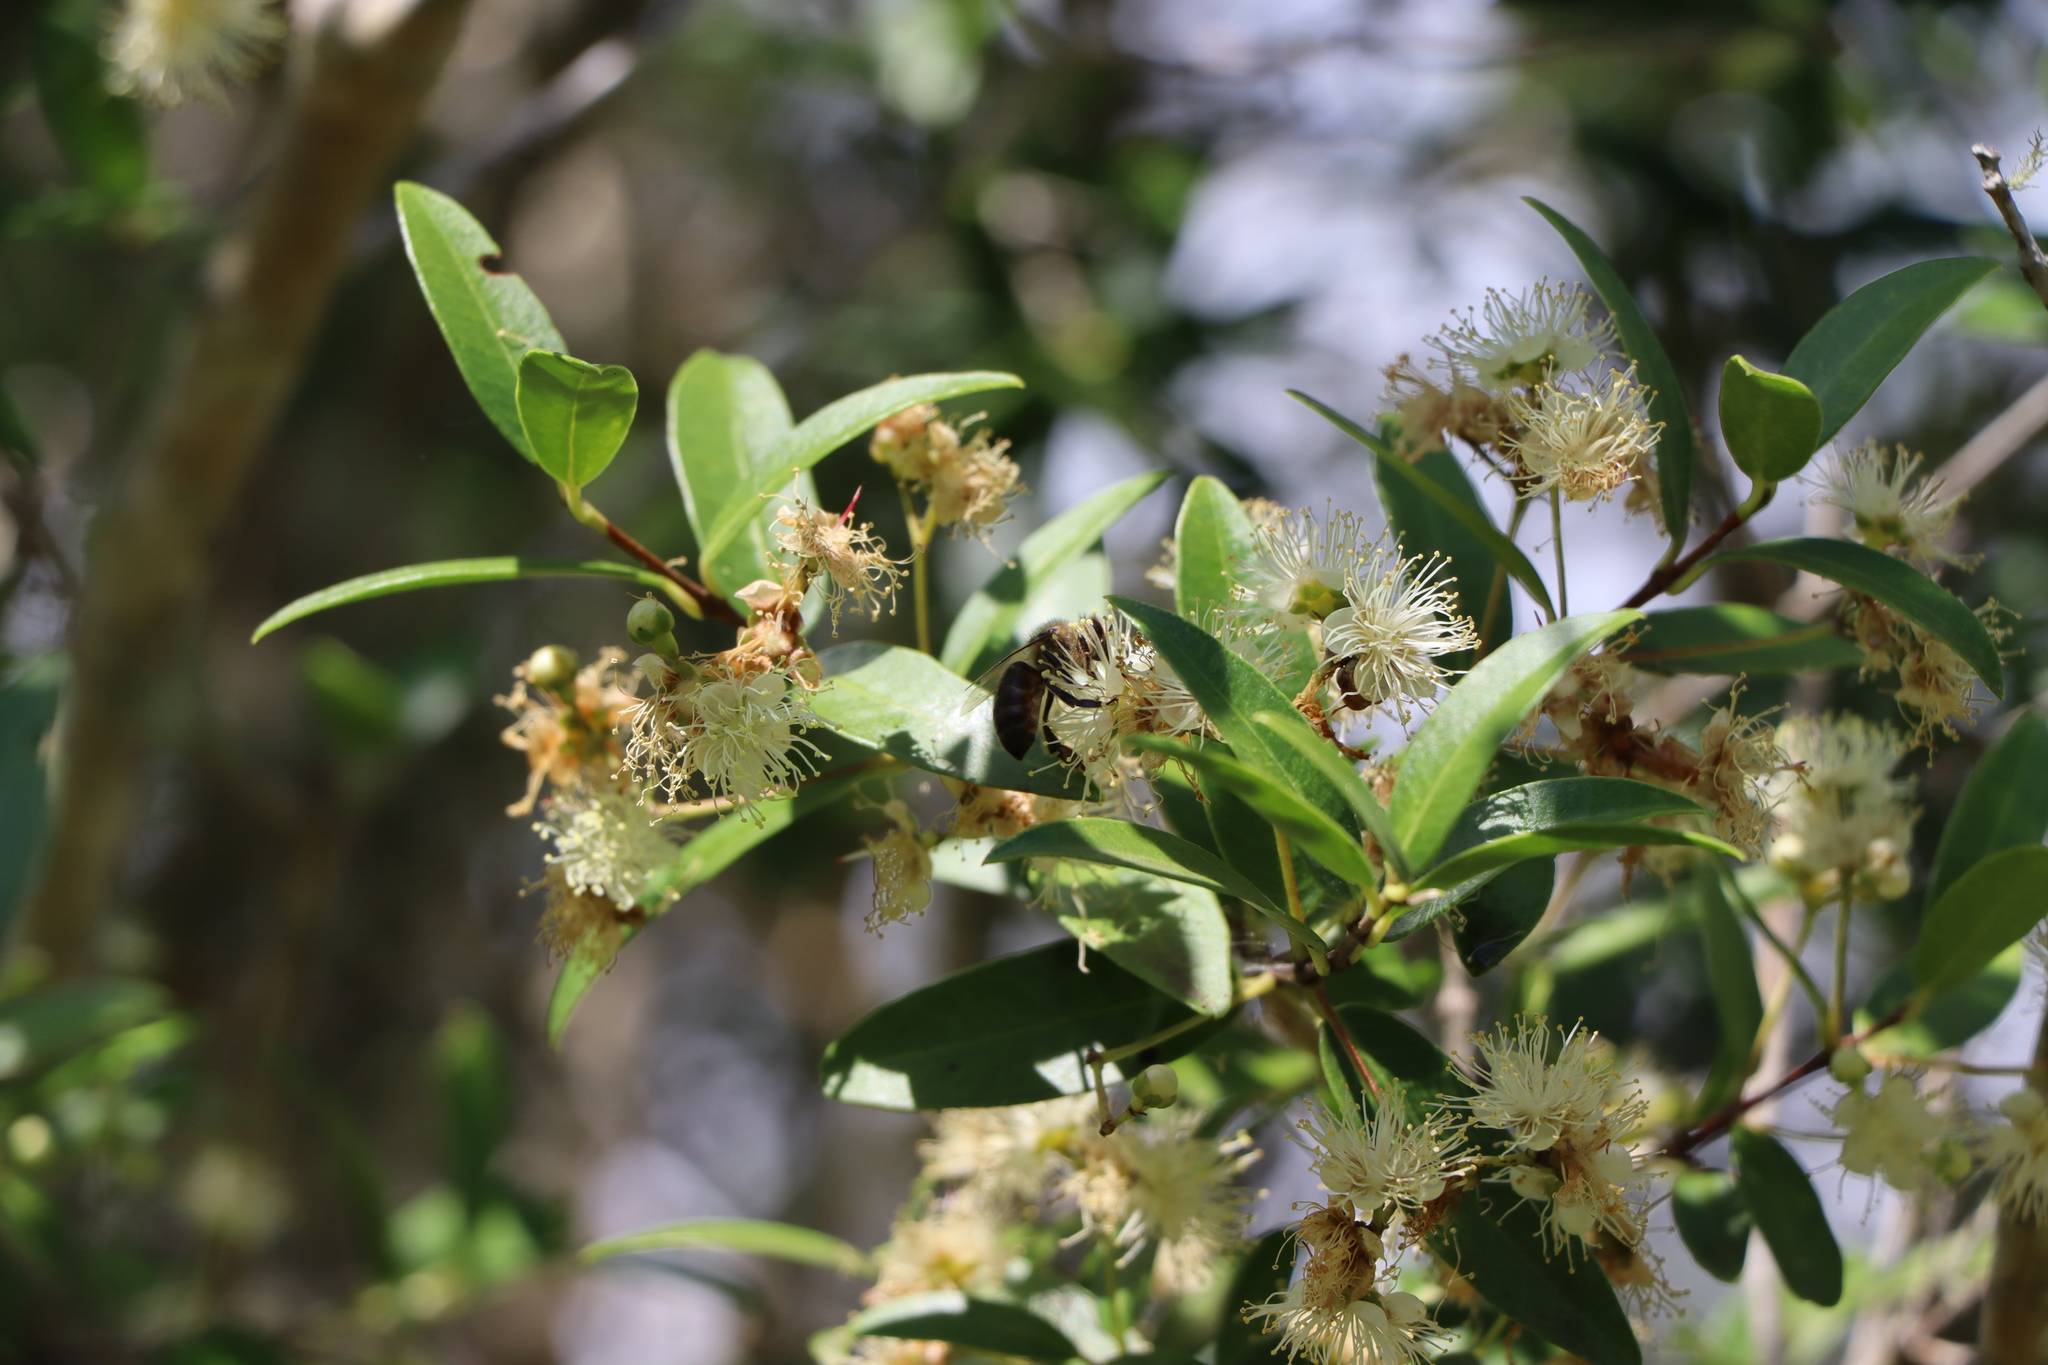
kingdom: Animalia
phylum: Arthropoda
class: Insecta
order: Hymenoptera
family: Apidae
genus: Apis
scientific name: Apis mellifera
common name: Honey bee
